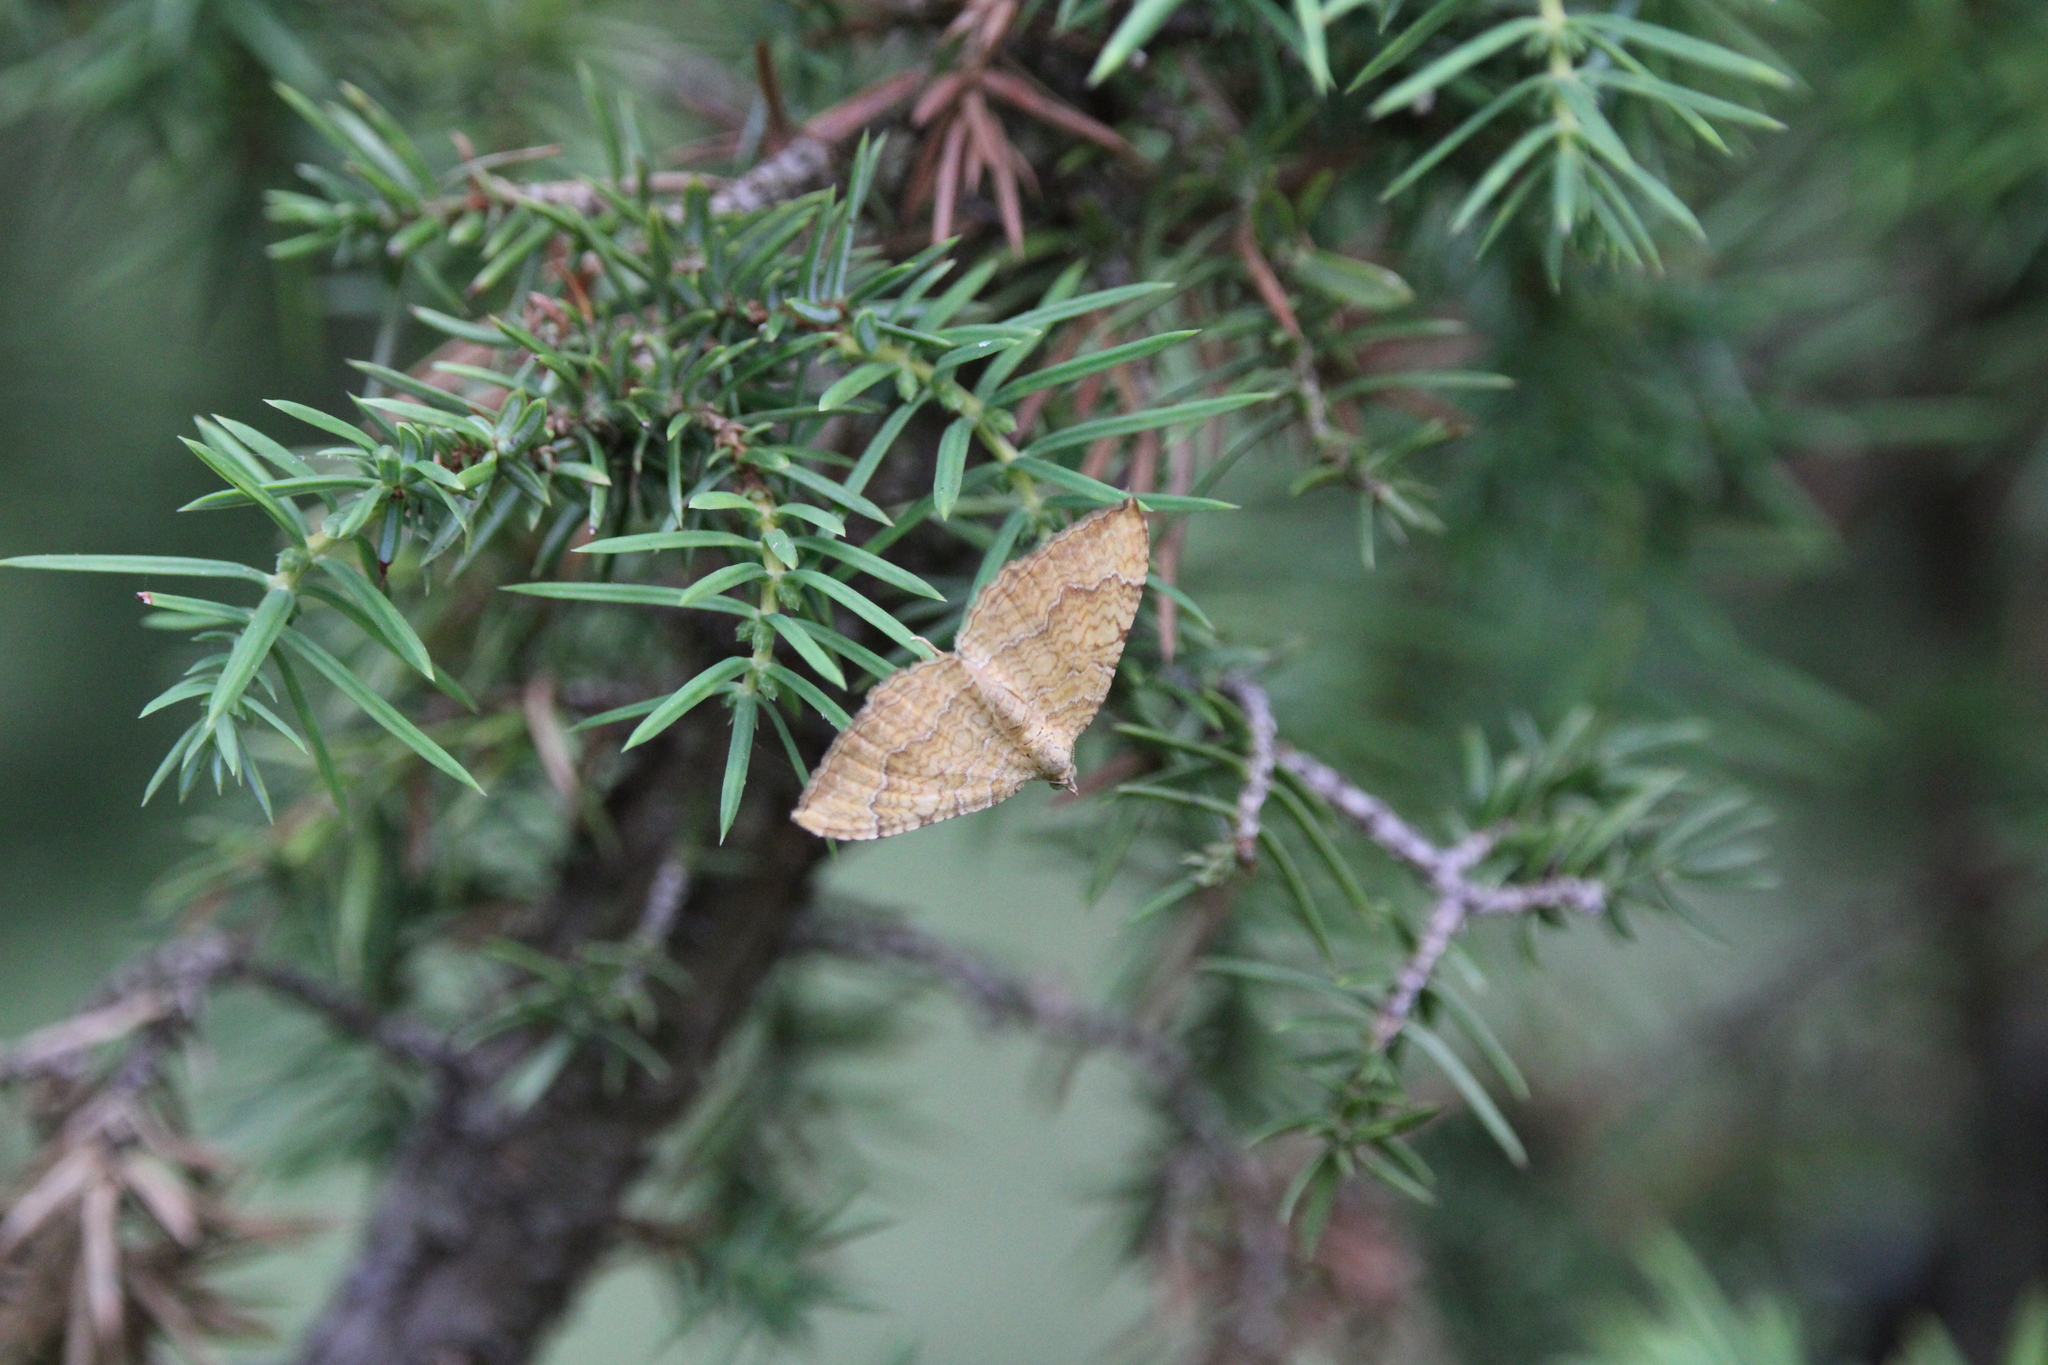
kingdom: Animalia
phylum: Arthropoda
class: Insecta
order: Lepidoptera
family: Geometridae
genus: Camptogramma
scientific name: Camptogramma bilineata
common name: Yellow shell
